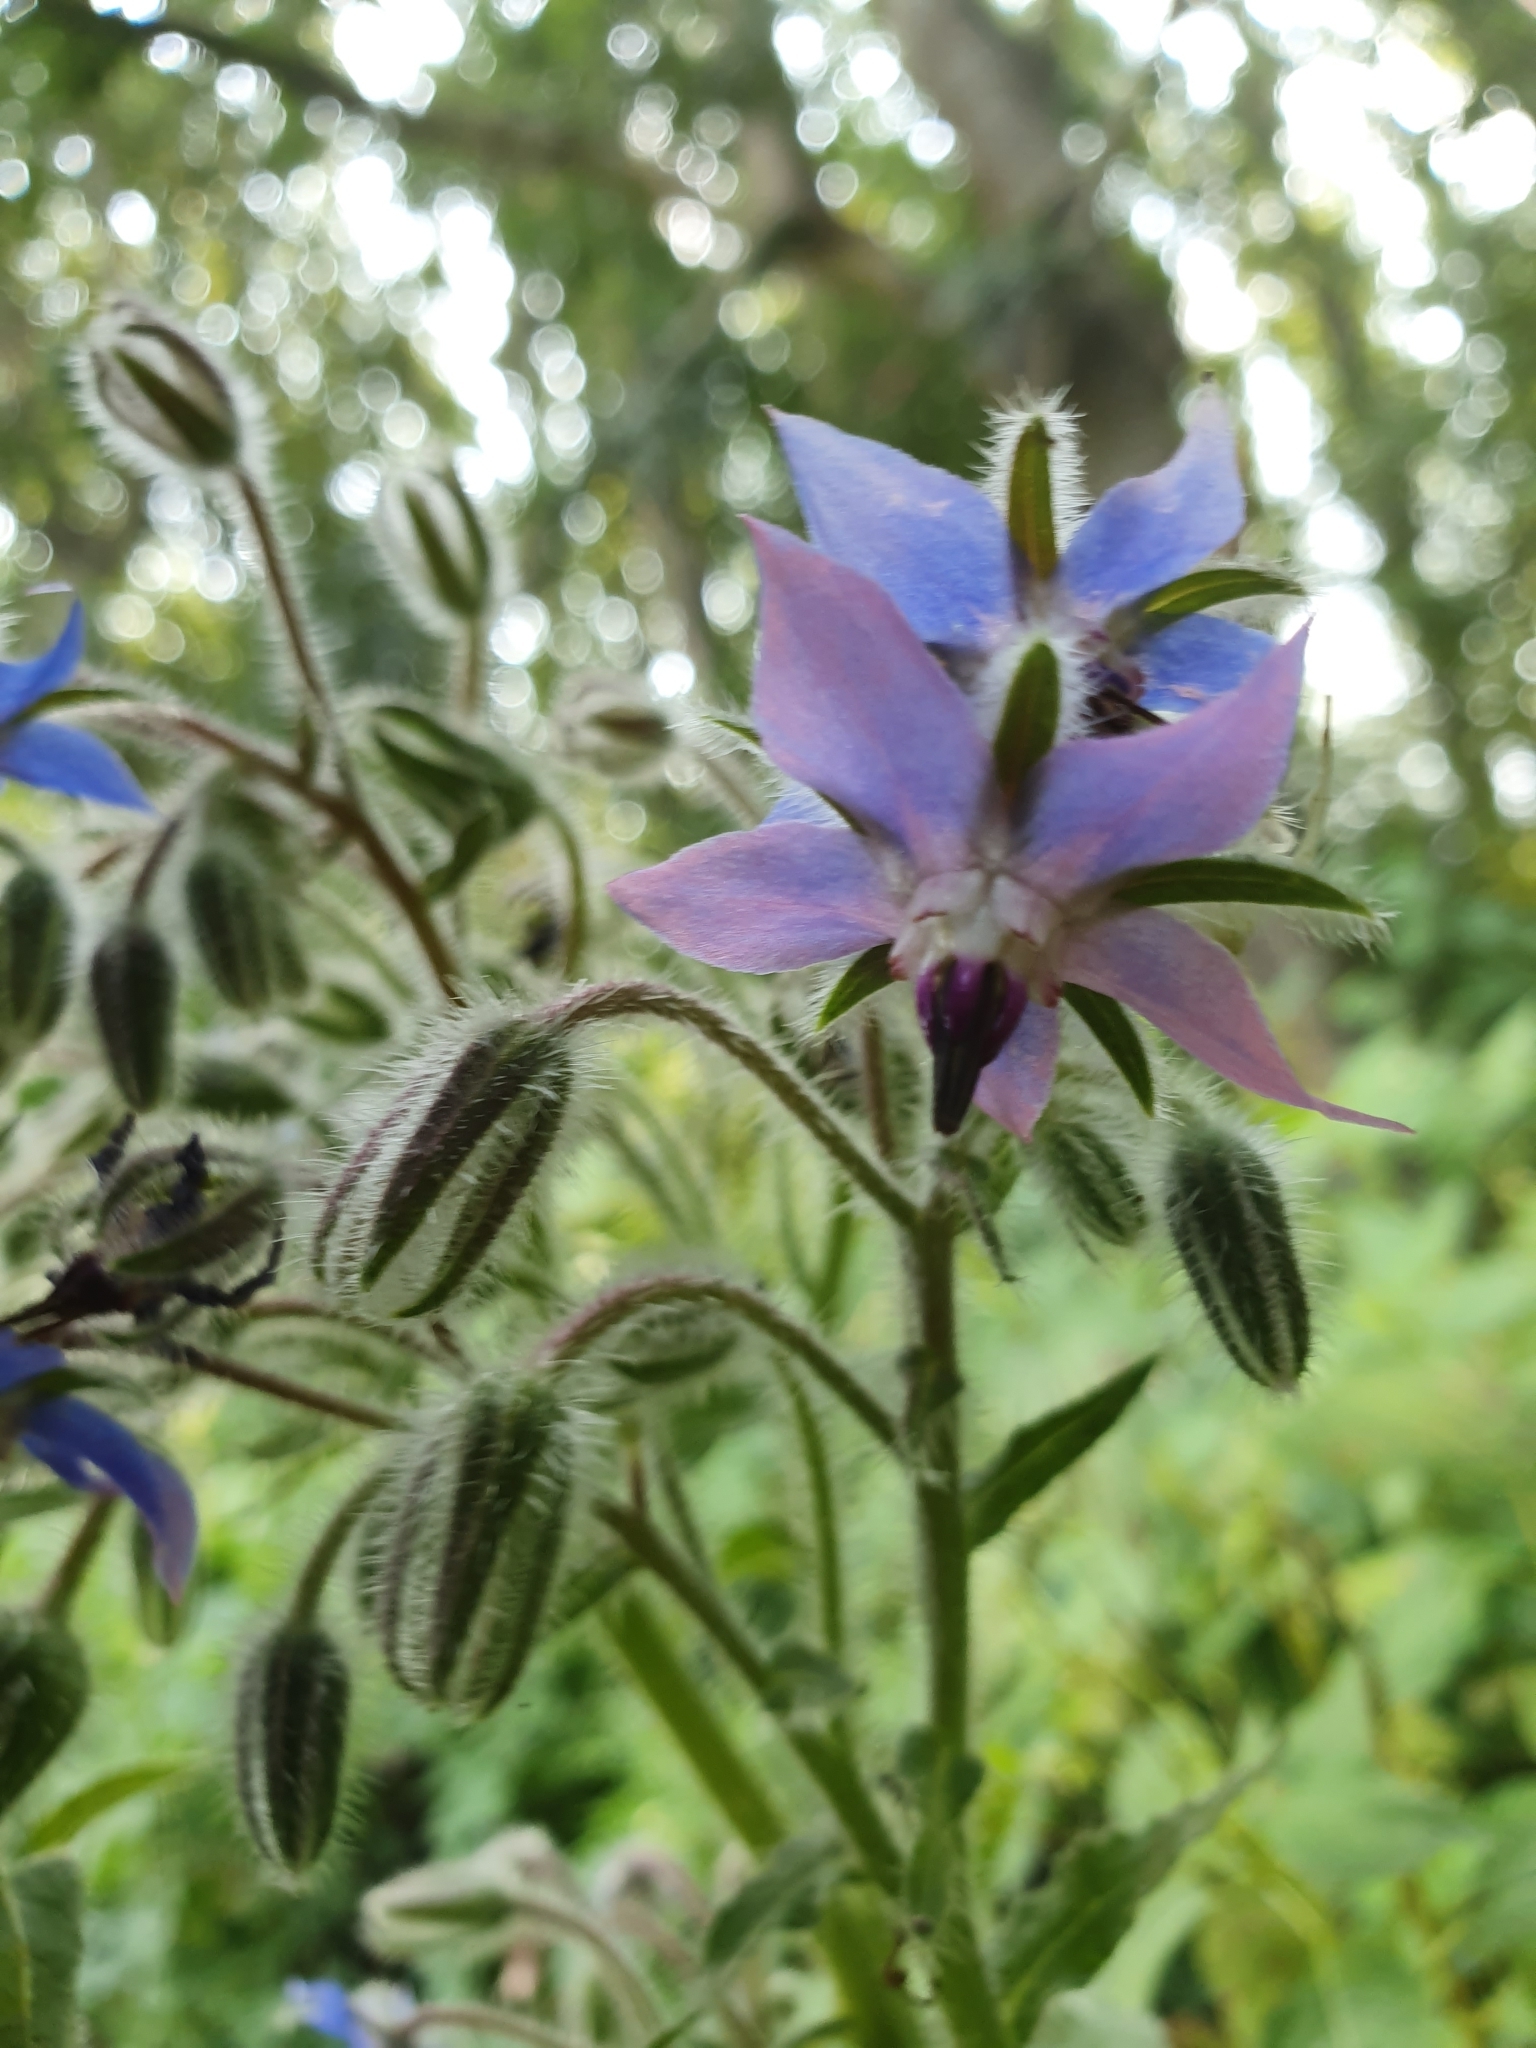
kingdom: Plantae
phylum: Tracheophyta
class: Magnoliopsida
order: Boraginales
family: Boraginaceae
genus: Borago
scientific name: Borago officinalis
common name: Borage
